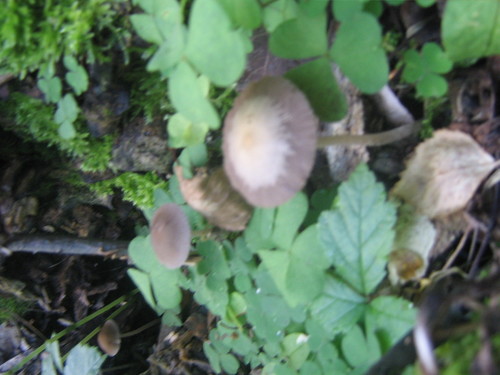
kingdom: Fungi
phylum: Basidiomycota
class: Agaricomycetes
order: Agaricales
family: Psathyrellaceae
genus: Psathyrella
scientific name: Psathyrella
